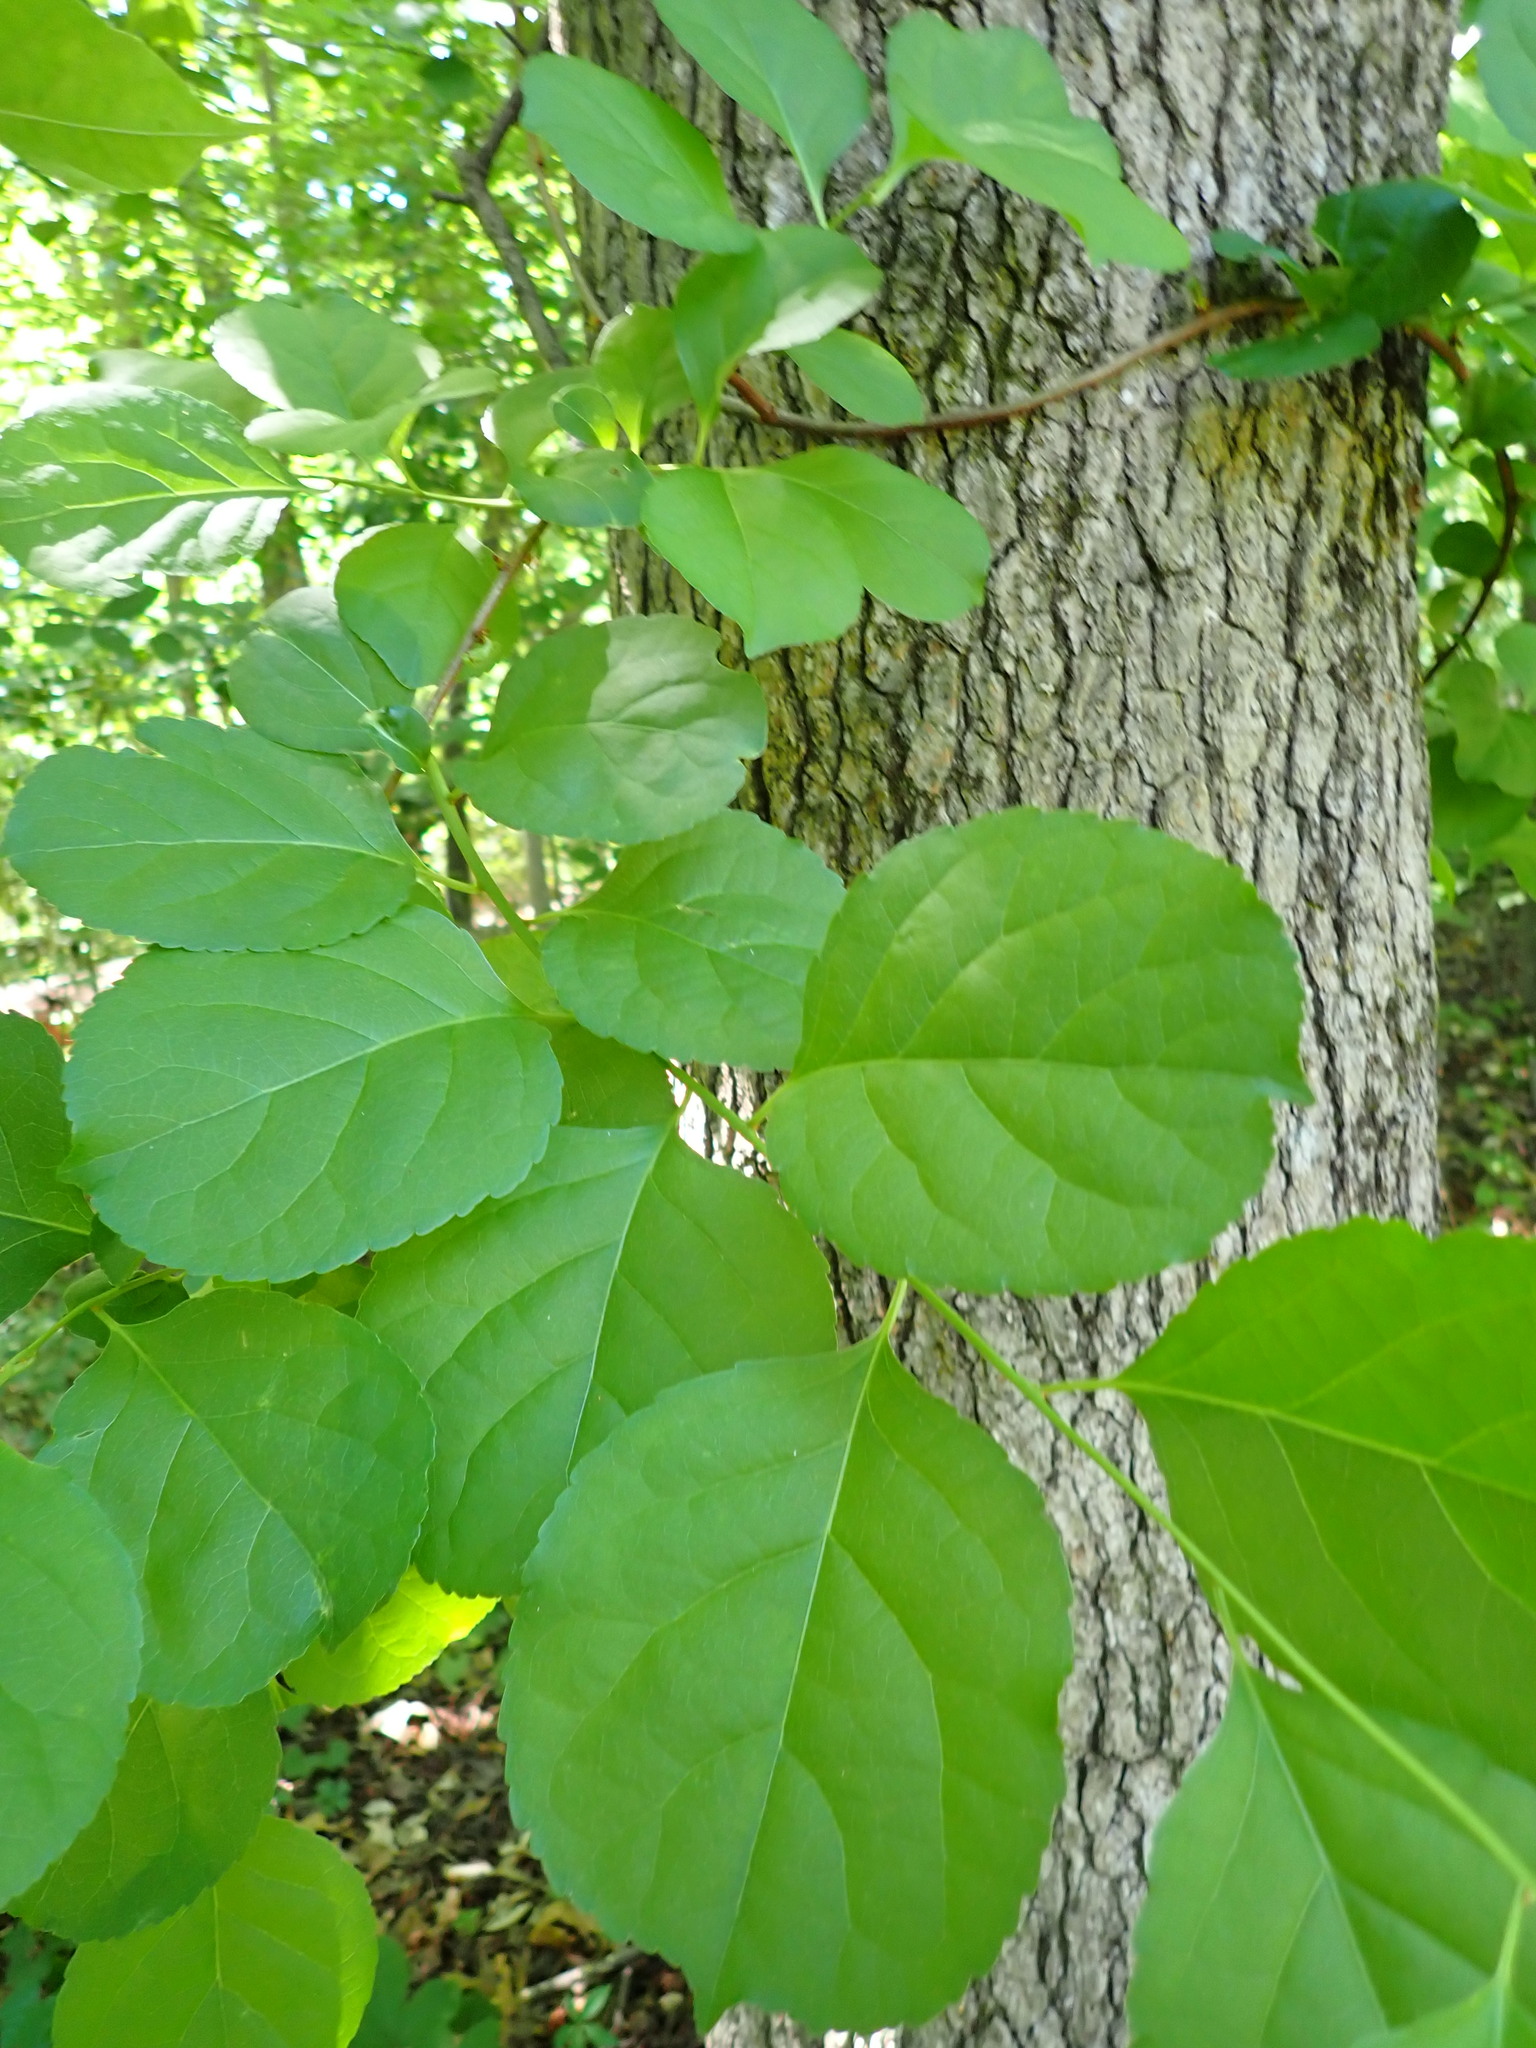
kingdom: Plantae
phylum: Tracheophyta
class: Magnoliopsida
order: Celastrales
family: Celastraceae
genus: Celastrus
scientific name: Celastrus orbiculatus
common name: Oriental bittersweet
